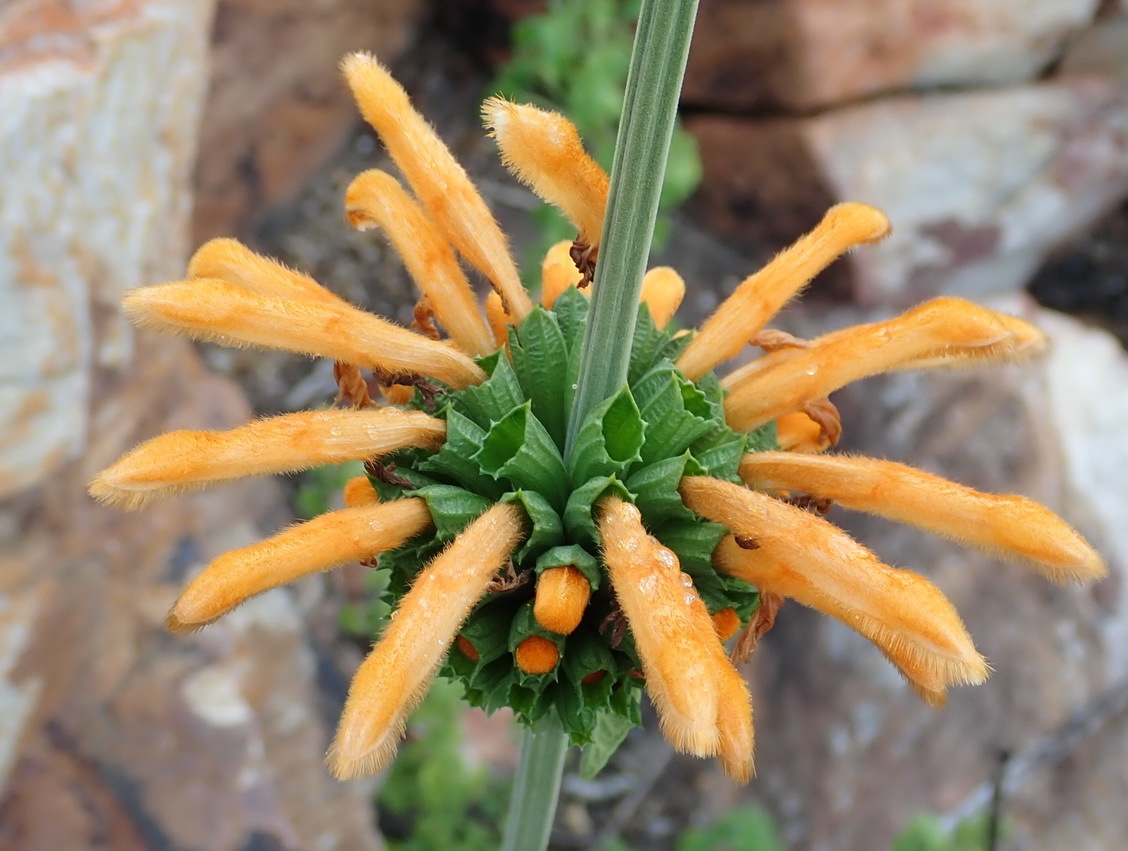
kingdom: Plantae
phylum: Tracheophyta
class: Magnoliopsida
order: Lamiales
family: Lamiaceae
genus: Leonotis
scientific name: Leonotis ocymifolia
